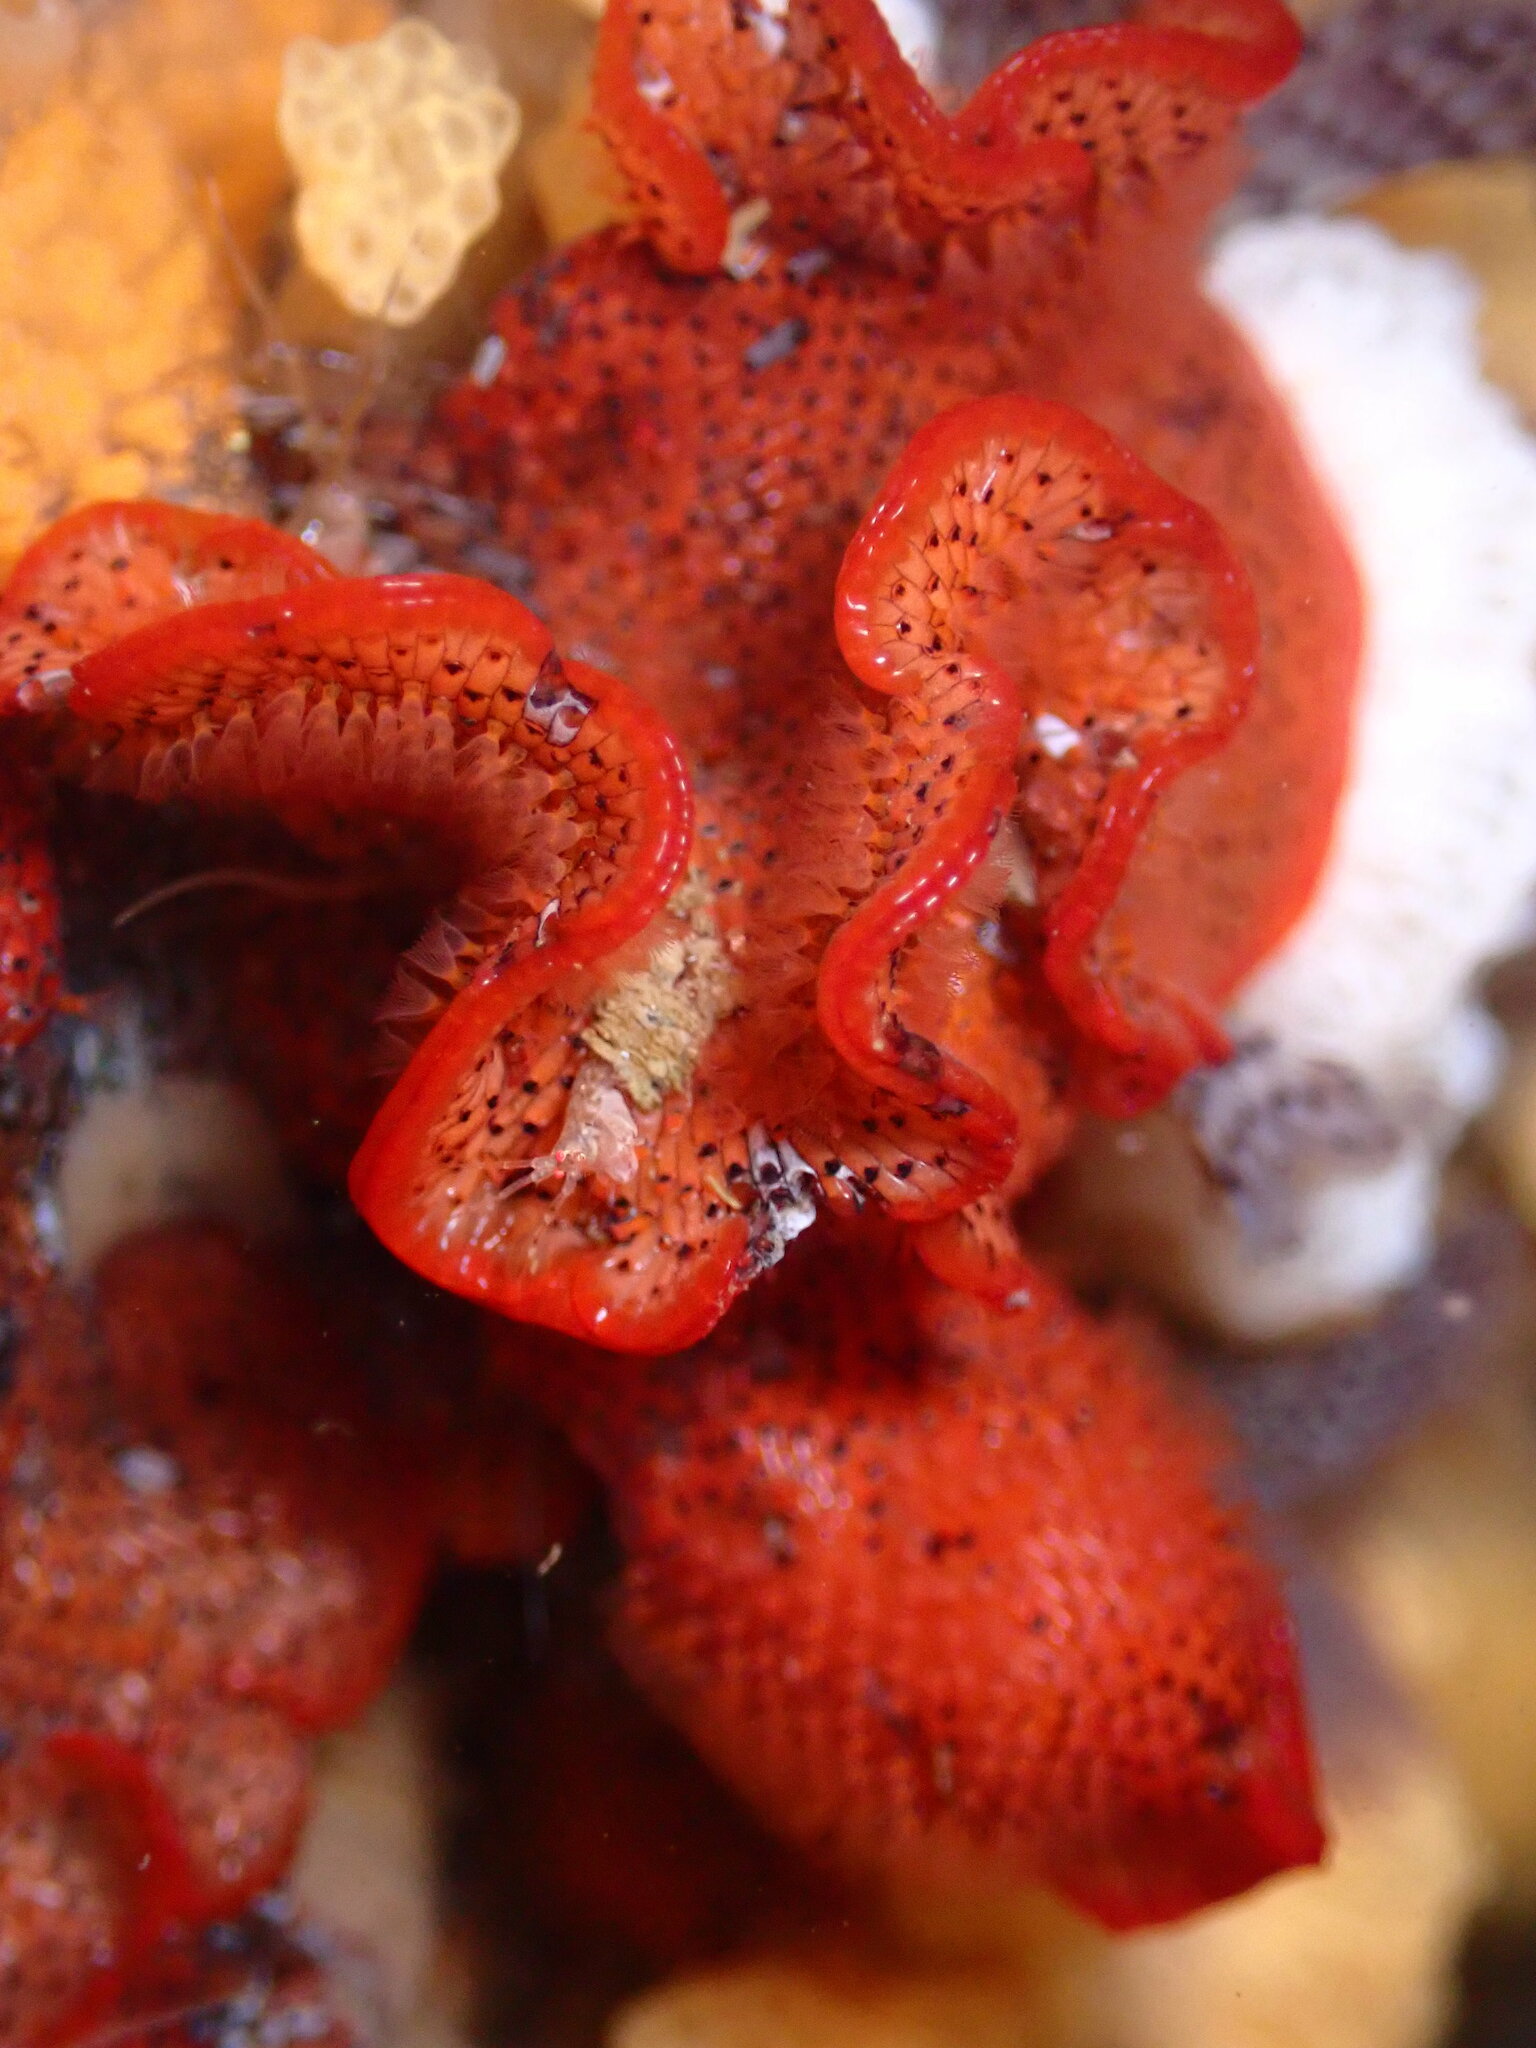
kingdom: Animalia
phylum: Bryozoa
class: Gymnolaemata
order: Cheilostomatida
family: Watersiporidae
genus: Watersipora
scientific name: Watersipora subtorquata
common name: Bryozoan
